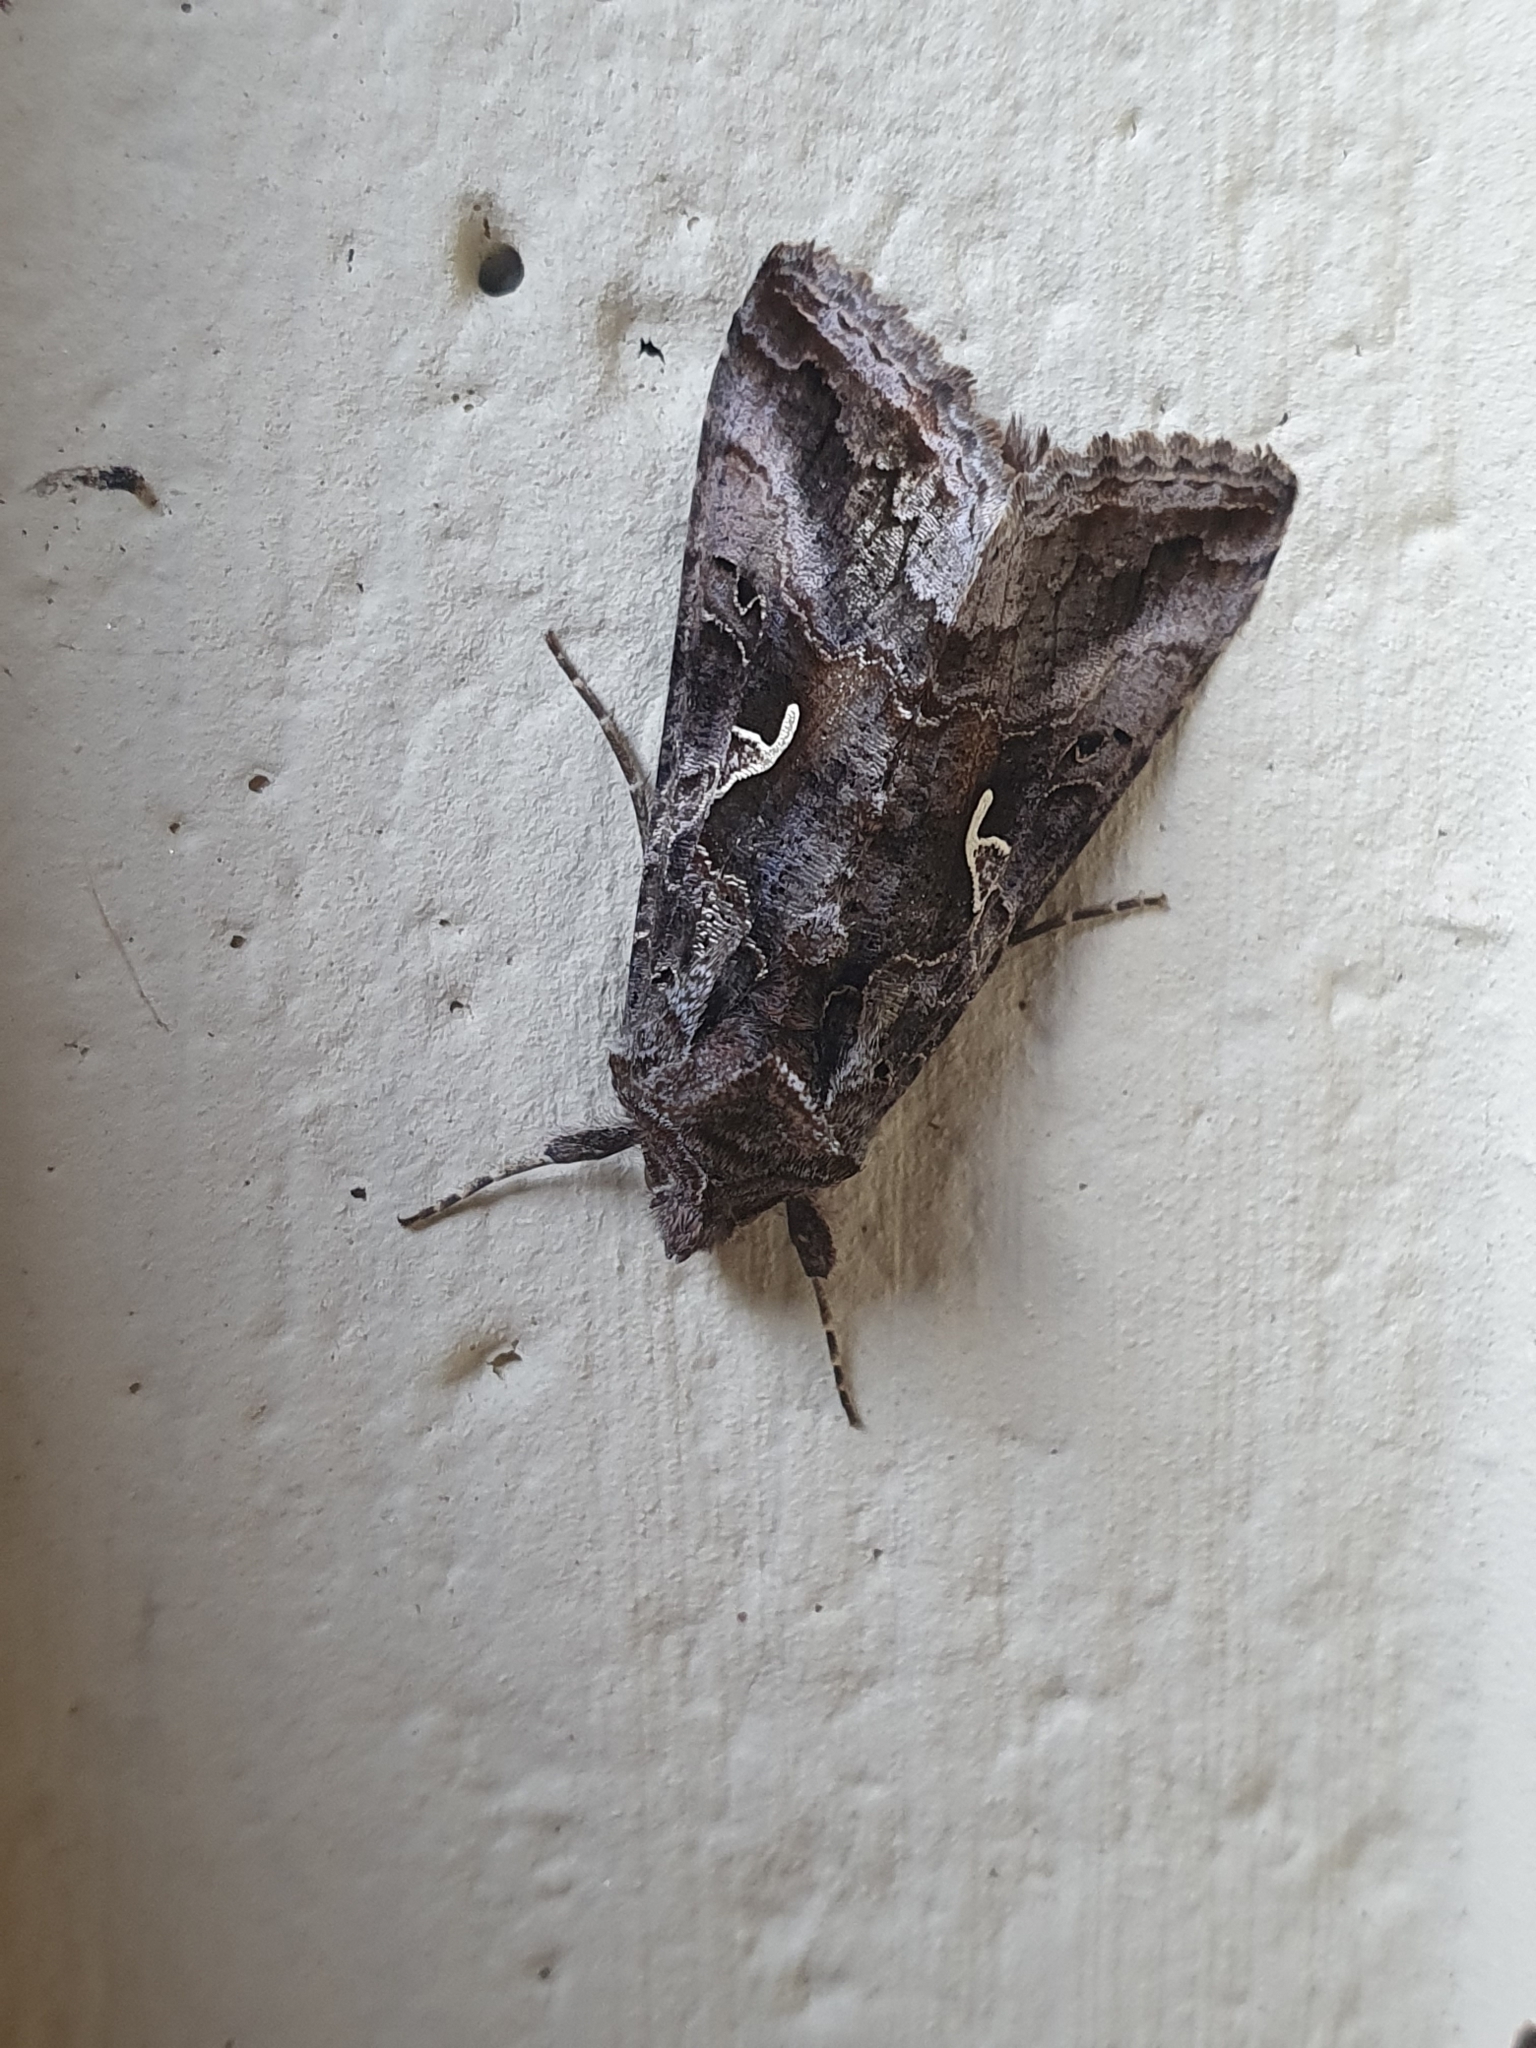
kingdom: Animalia
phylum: Arthropoda
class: Insecta
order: Lepidoptera
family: Noctuidae
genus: Autographa
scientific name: Autographa gamma
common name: Silver y
